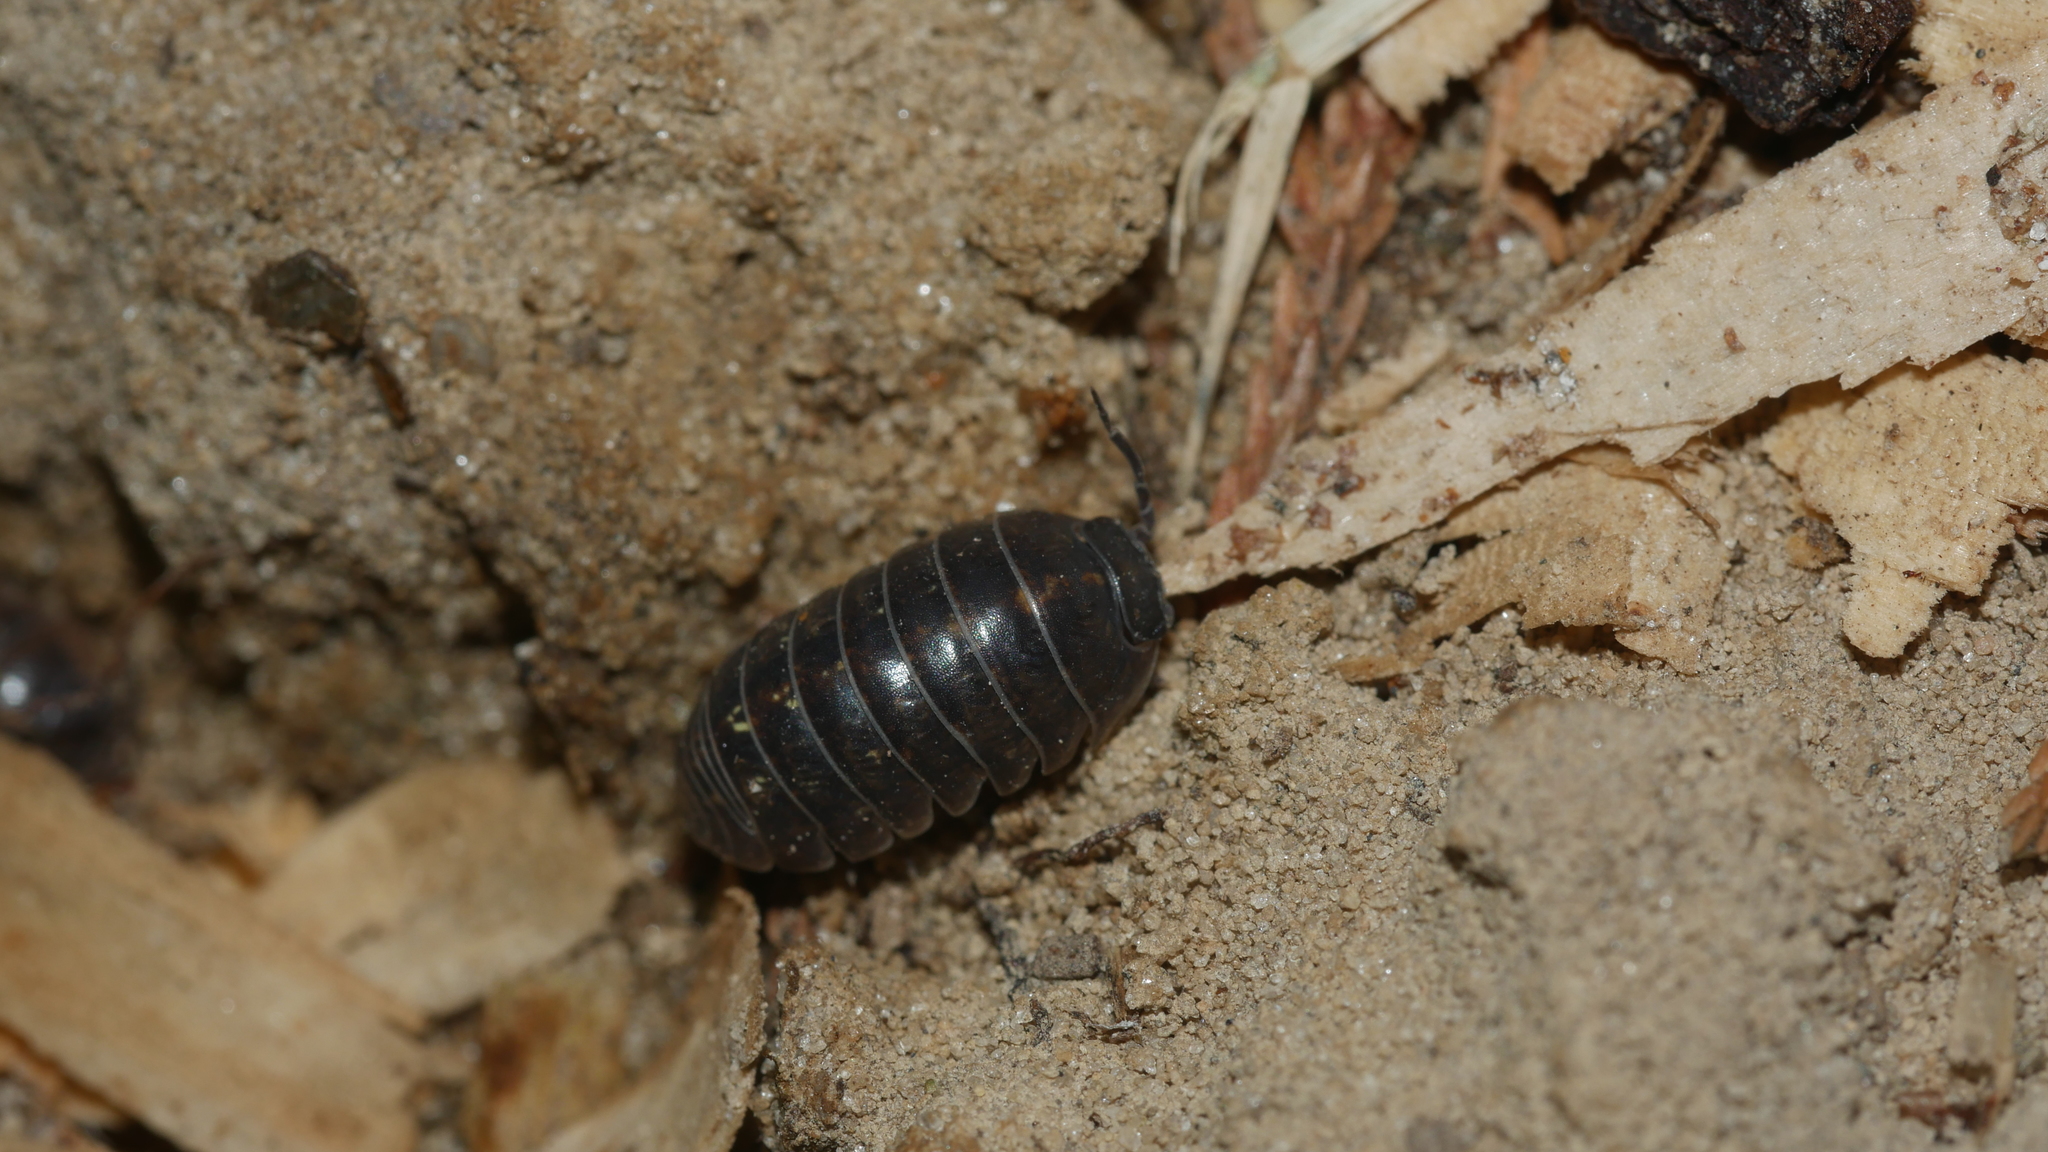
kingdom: Animalia
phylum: Arthropoda
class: Malacostraca
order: Isopoda
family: Armadillidiidae
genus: Armadillidium
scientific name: Armadillidium vulgare
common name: Common pill woodlouse
